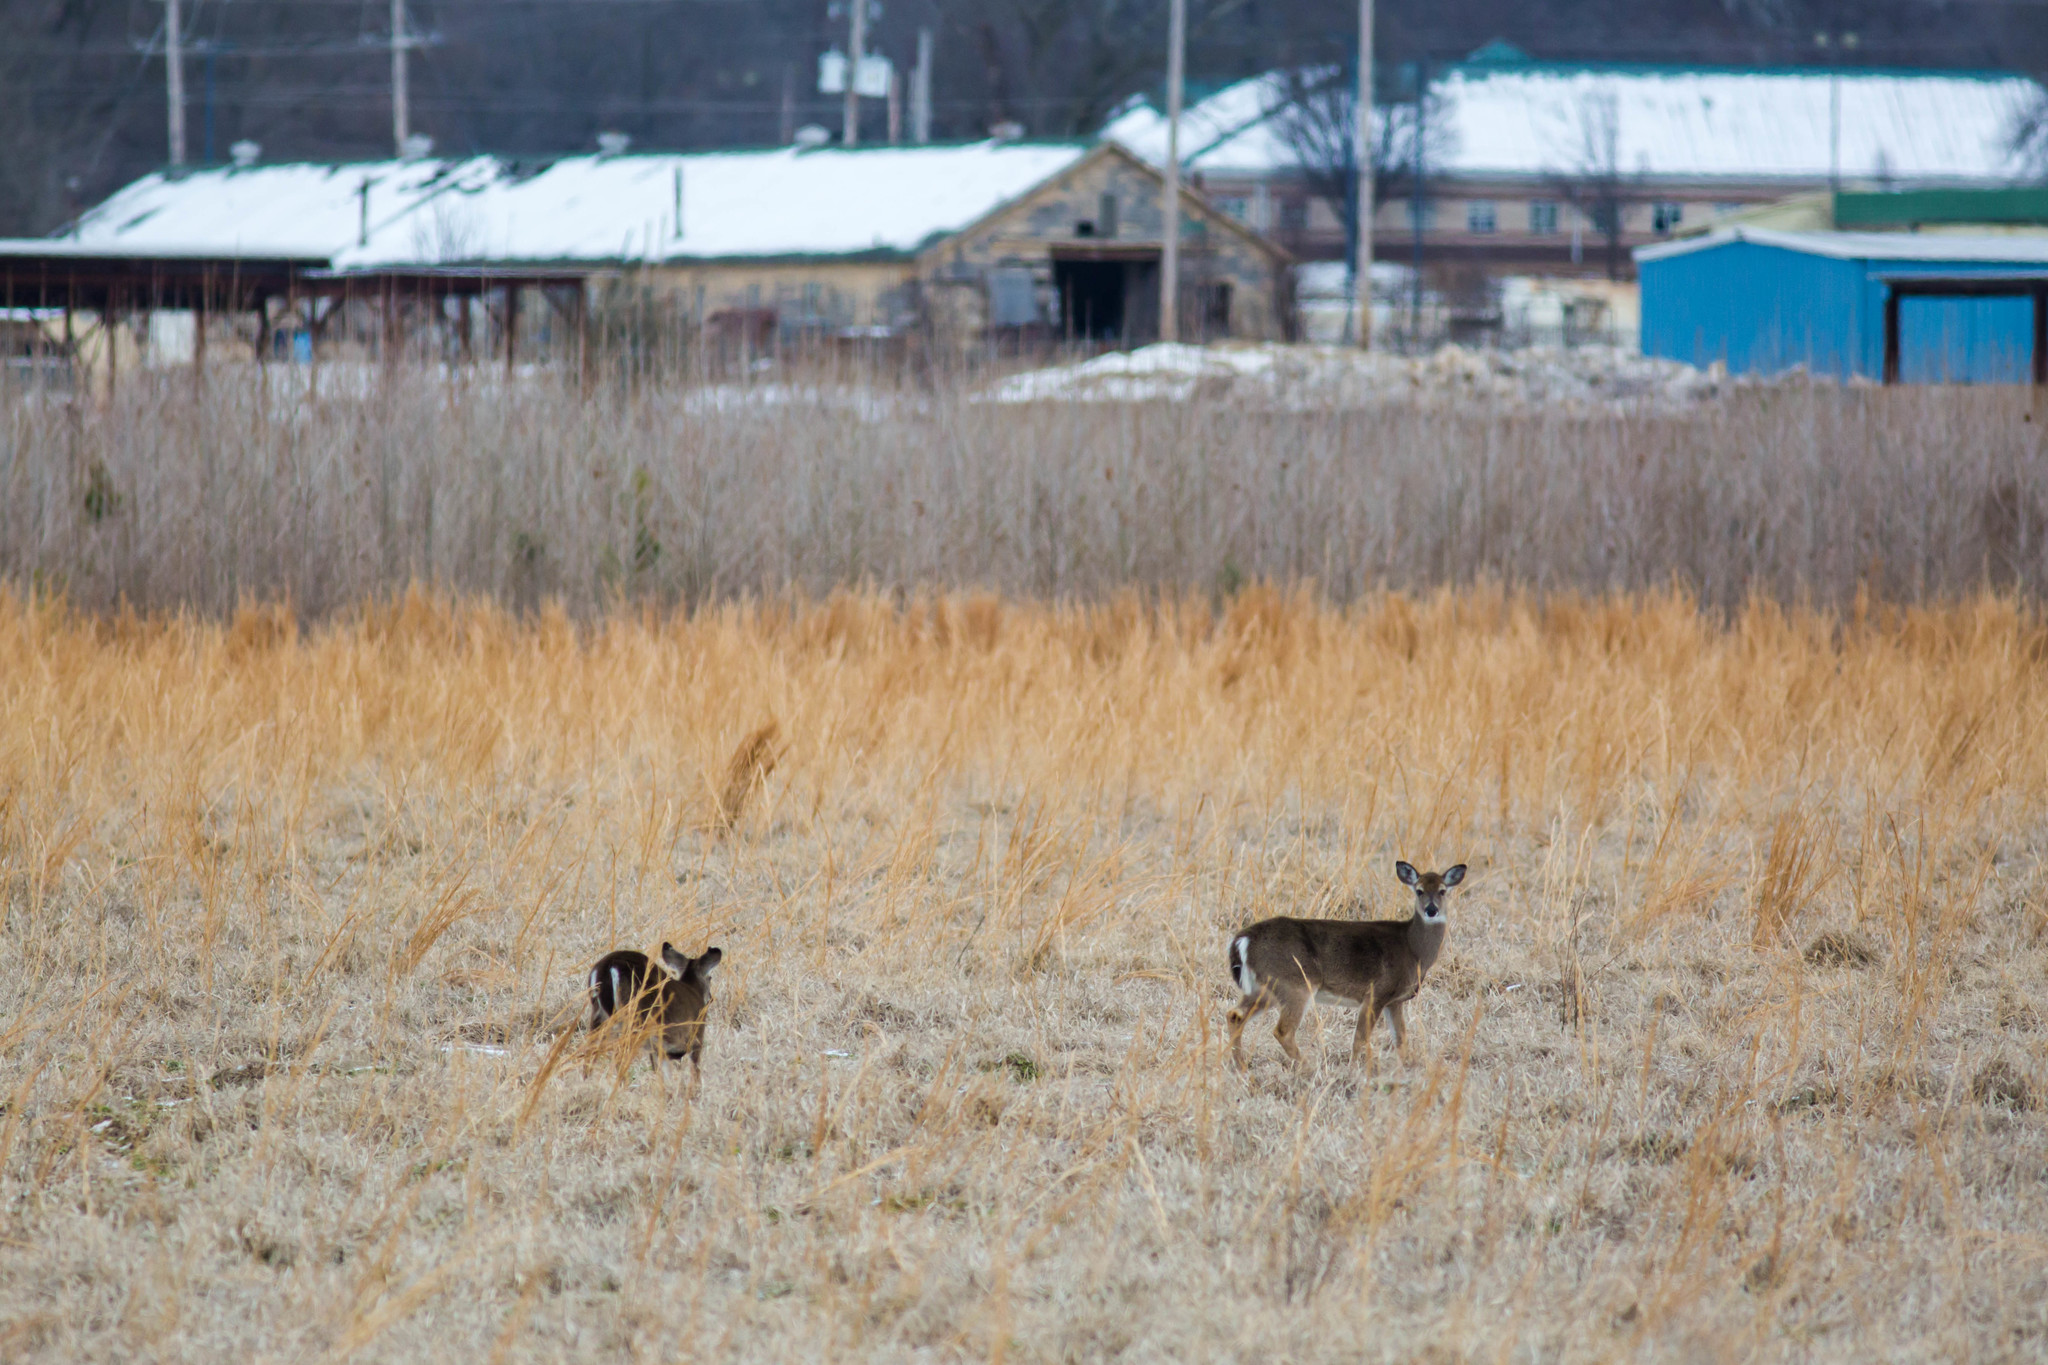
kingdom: Animalia
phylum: Chordata
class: Mammalia
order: Artiodactyla
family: Cervidae
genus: Odocoileus
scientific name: Odocoileus virginianus
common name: White-tailed deer
